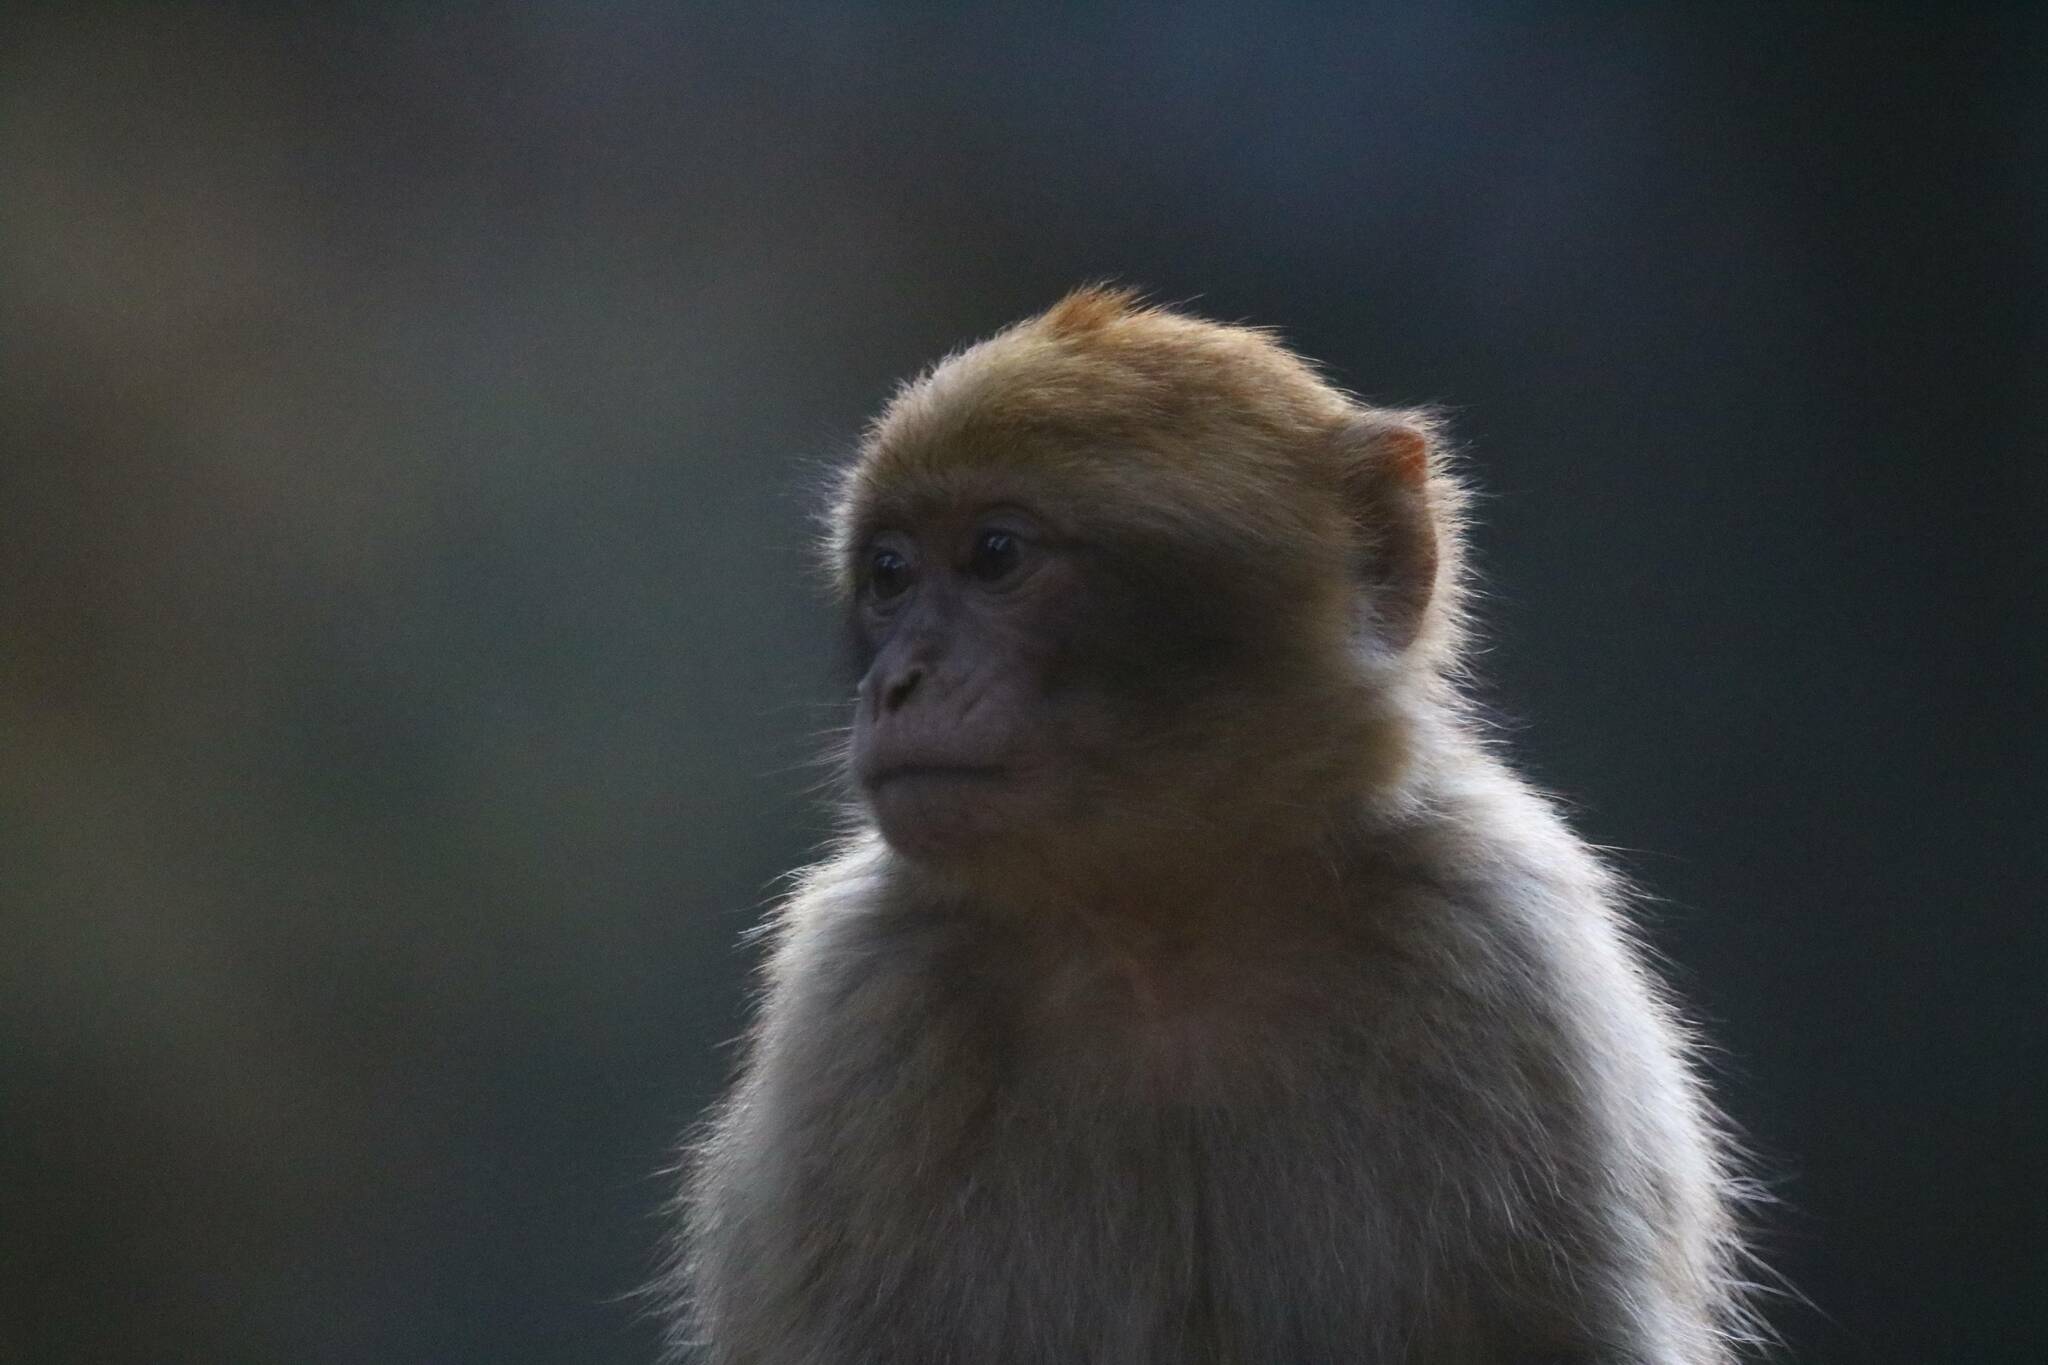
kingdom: Animalia
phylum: Chordata
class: Mammalia
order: Primates
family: Cercopithecidae
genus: Macaca
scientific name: Macaca sylvanus
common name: Barbary macaque
